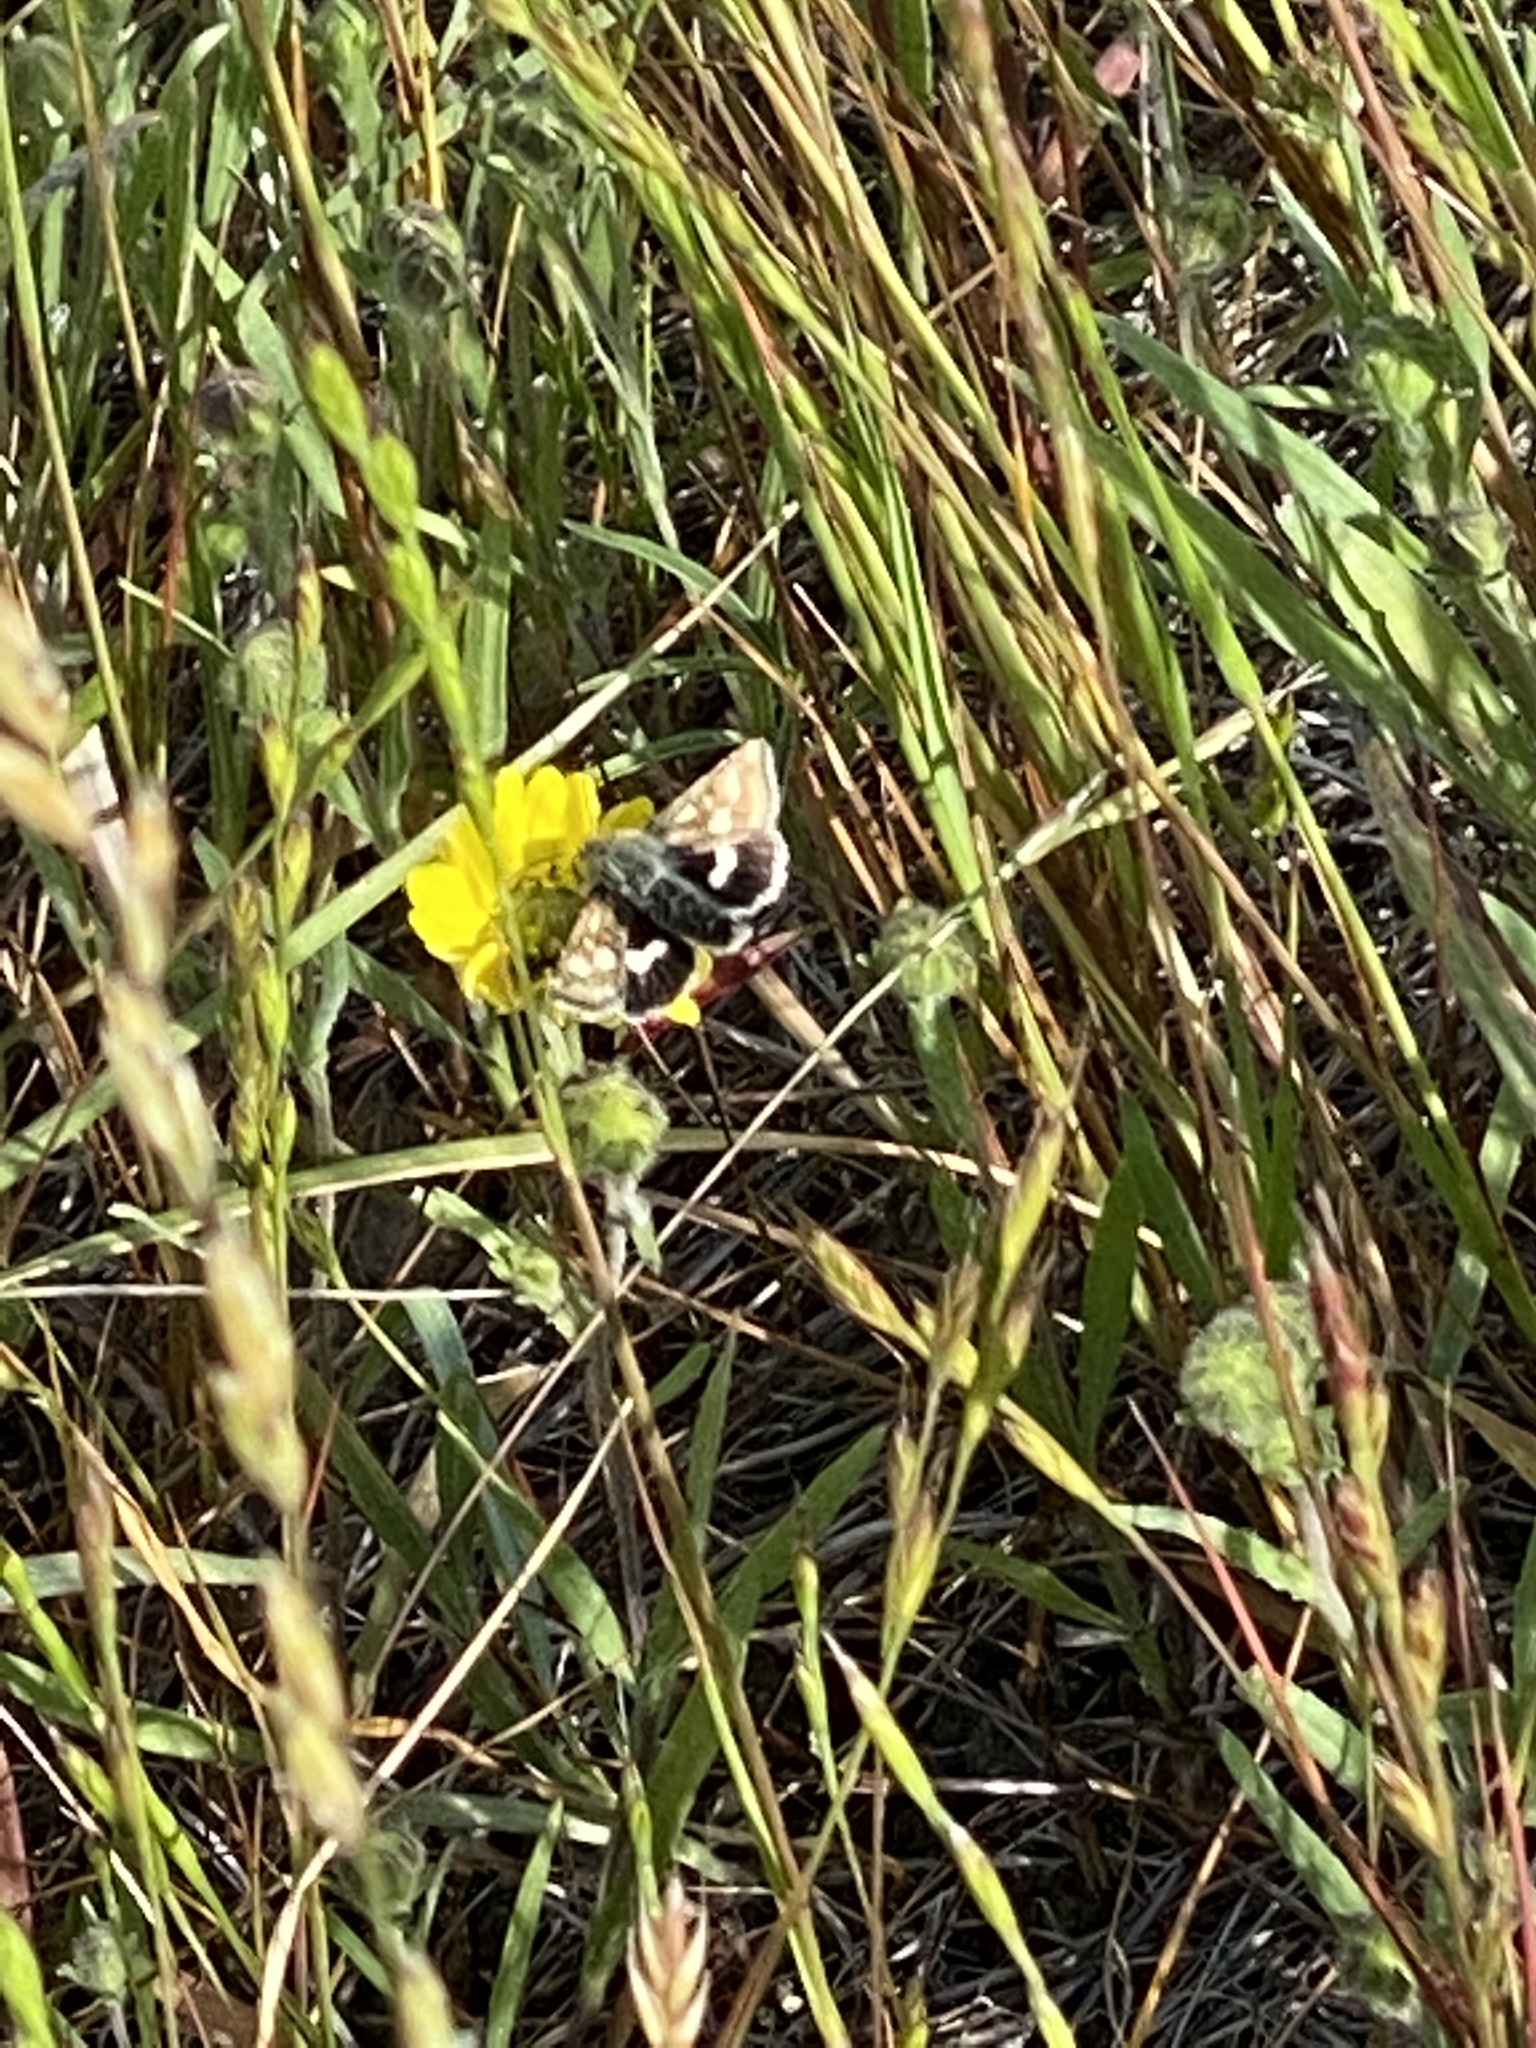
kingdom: Animalia
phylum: Arthropoda
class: Insecta
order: Lepidoptera
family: Noctuidae
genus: Heliothodes
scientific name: Heliothodes diminutiva
